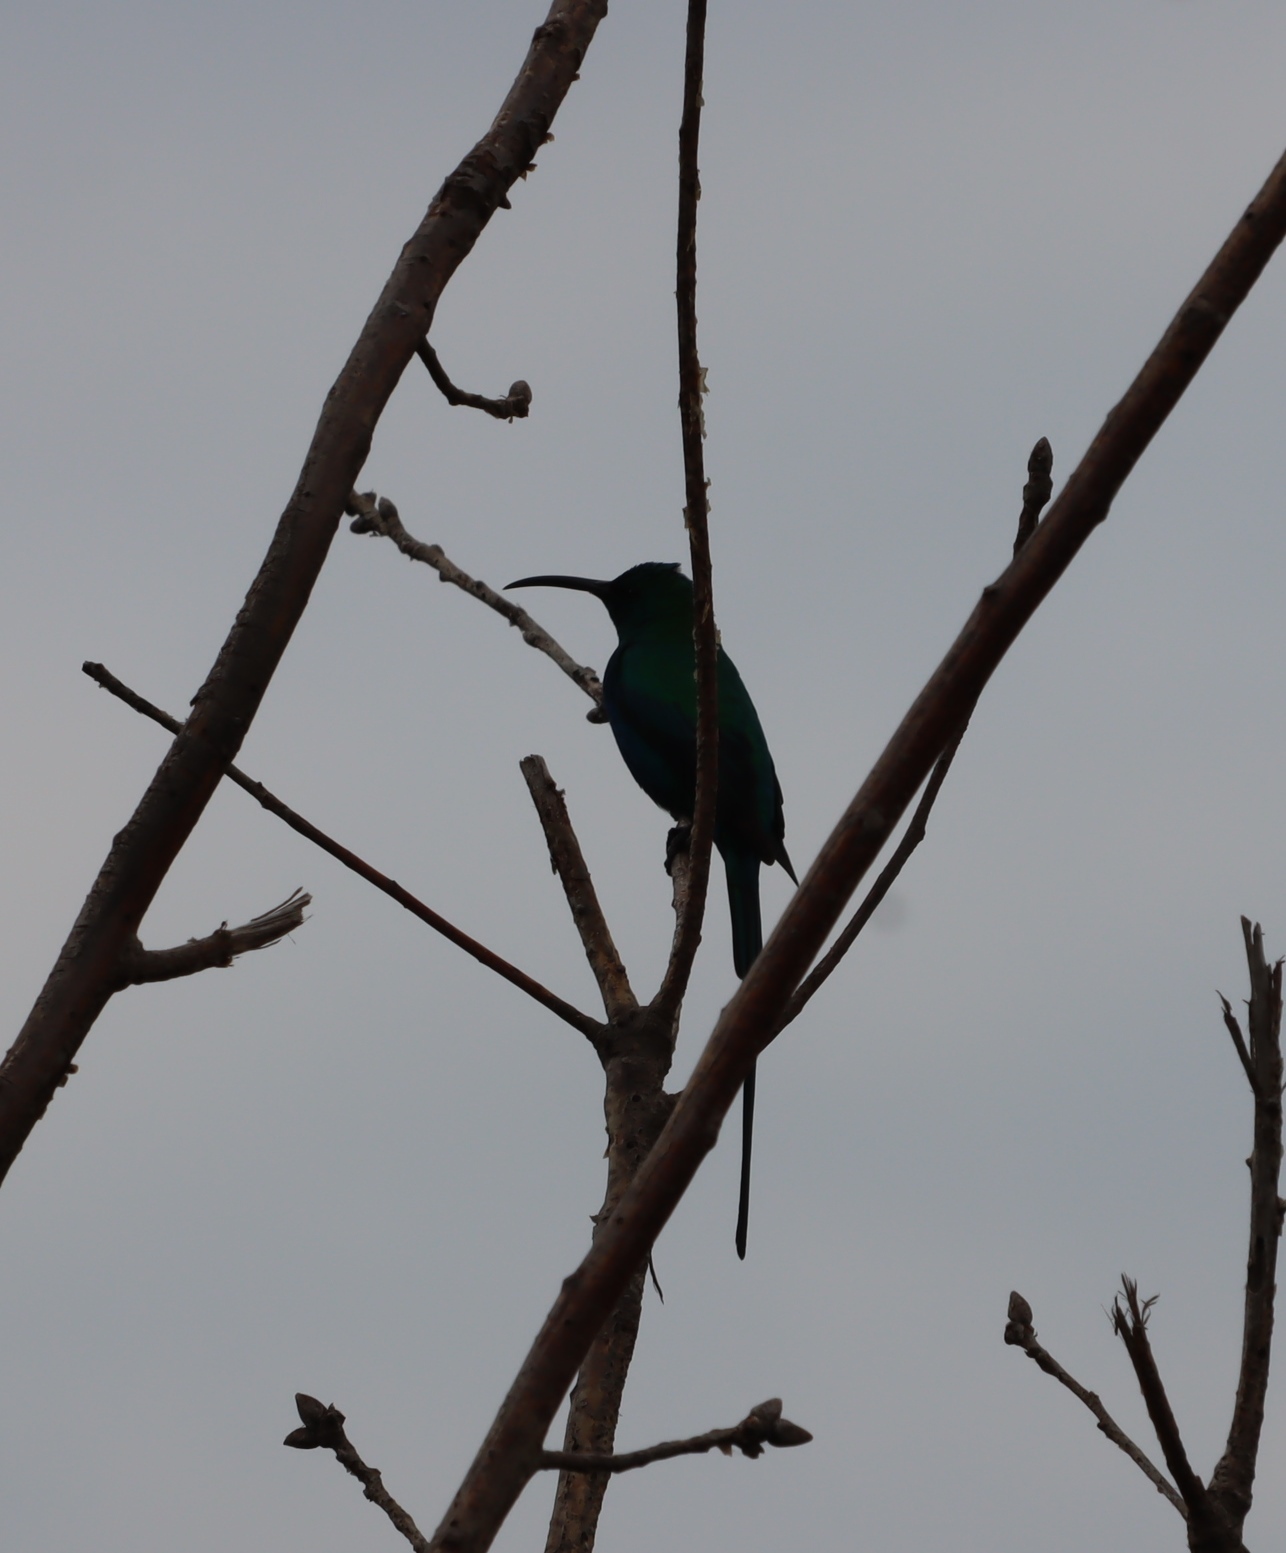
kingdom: Animalia
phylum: Chordata
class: Aves
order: Passeriformes
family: Nectariniidae
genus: Nectarinia
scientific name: Nectarinia famosa
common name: Malachite sunbird
